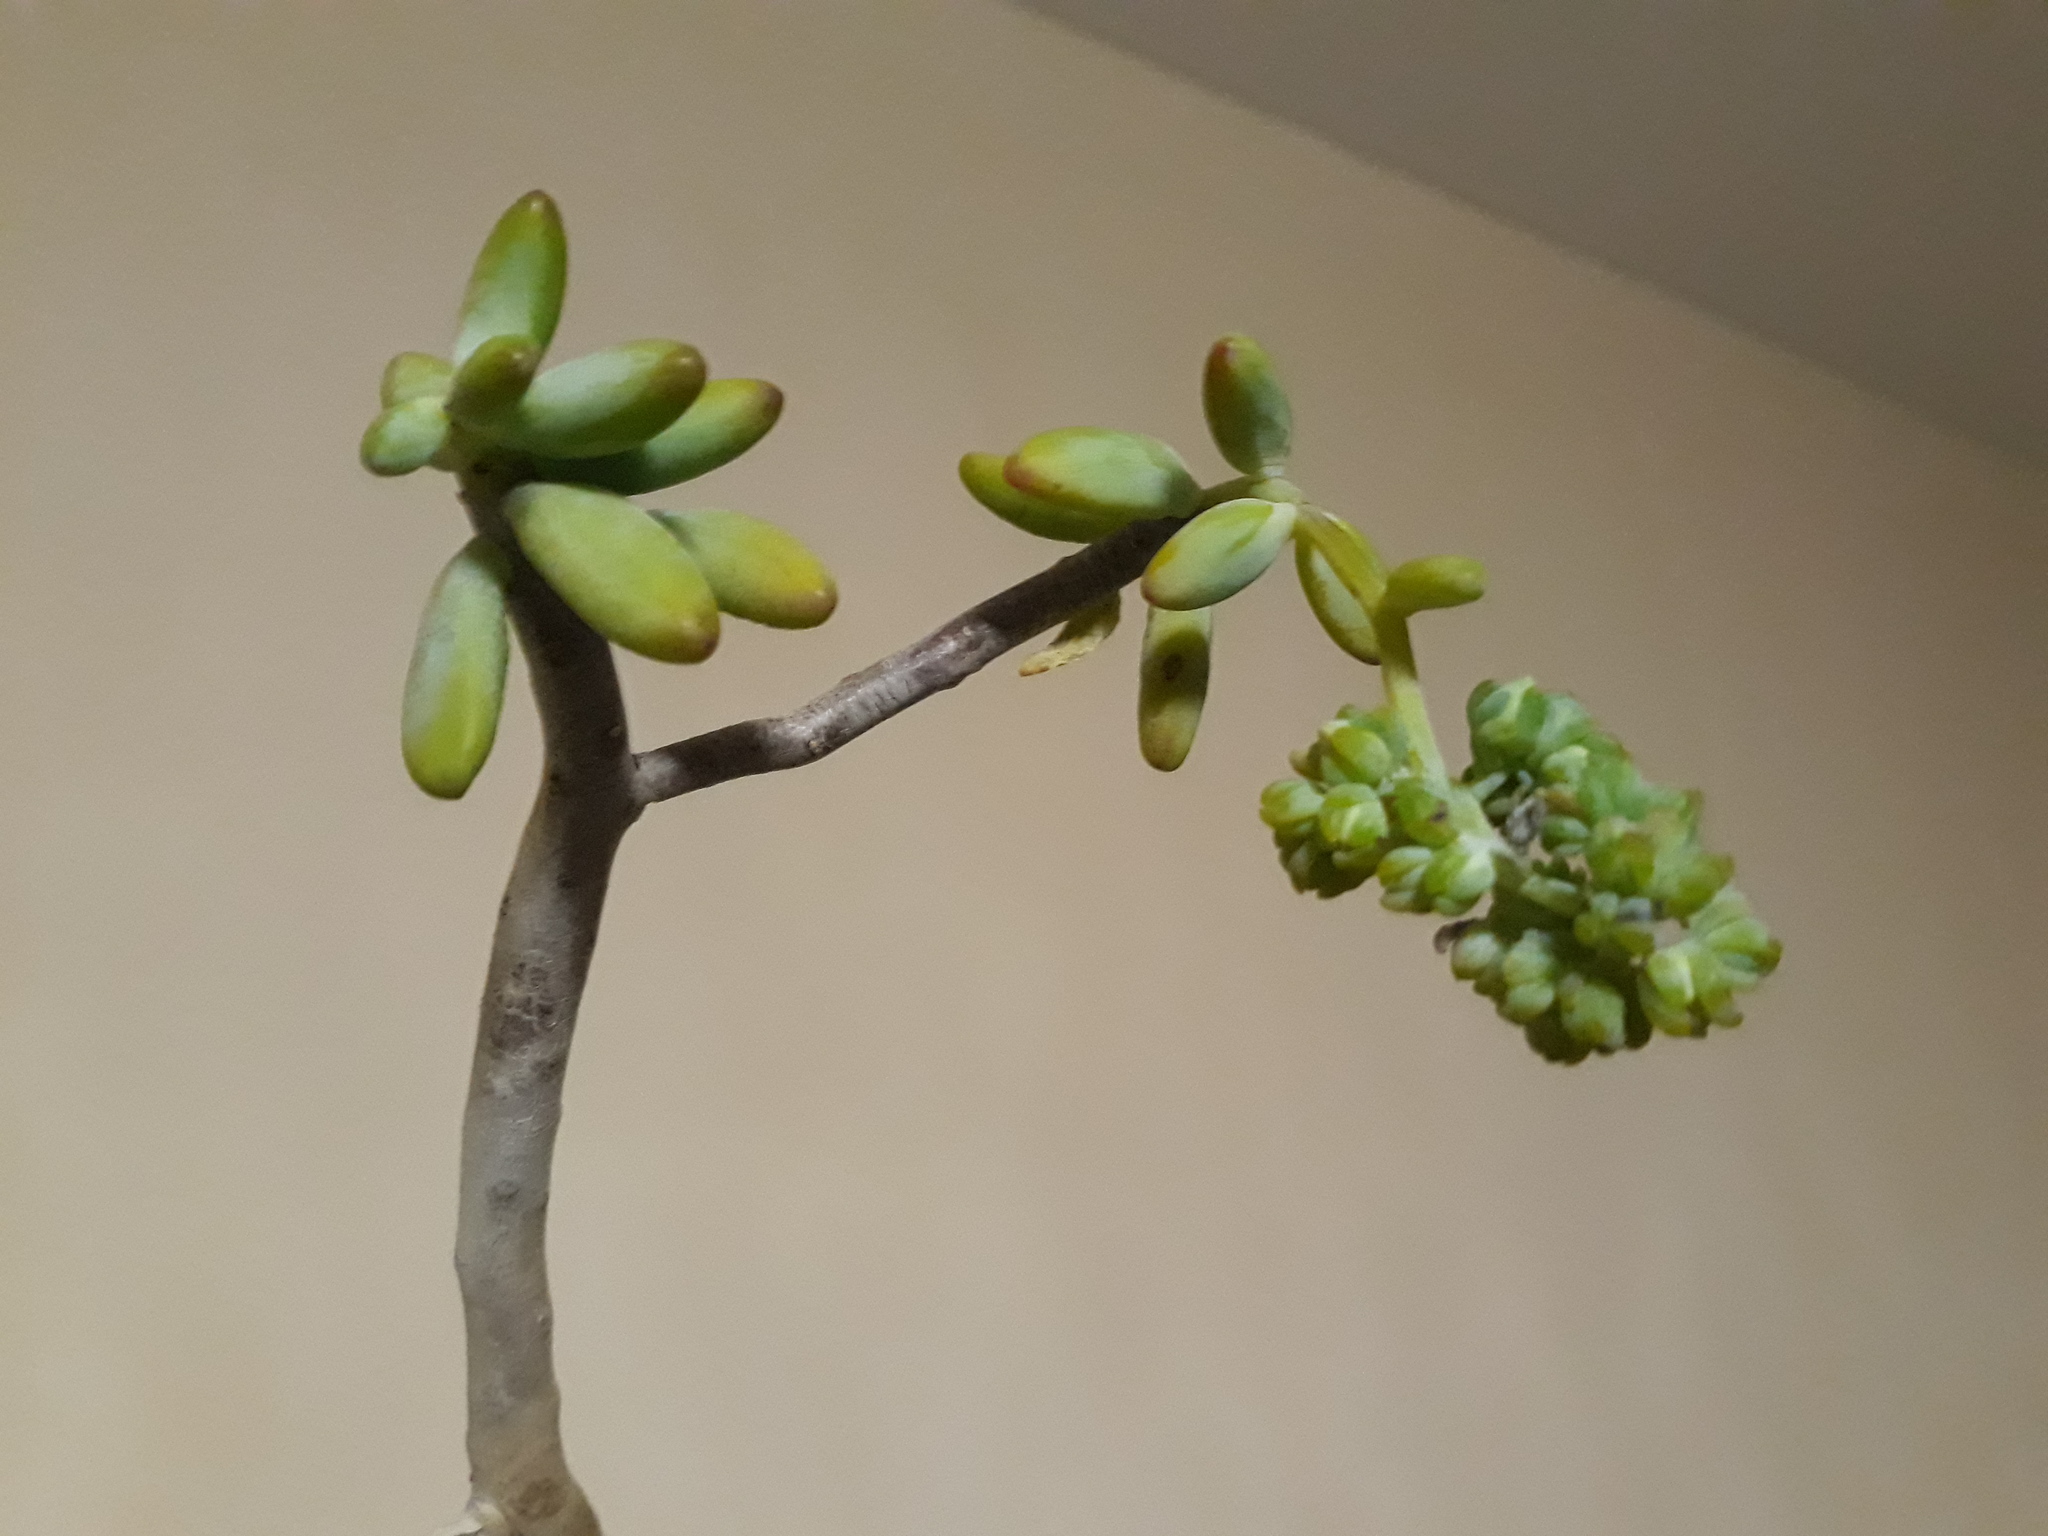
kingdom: Plantae
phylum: Tracheophyta
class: Magnoliopsida
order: Saxifragales
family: Crassulaceae
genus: Sedum
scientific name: Sedum corynephyllum
